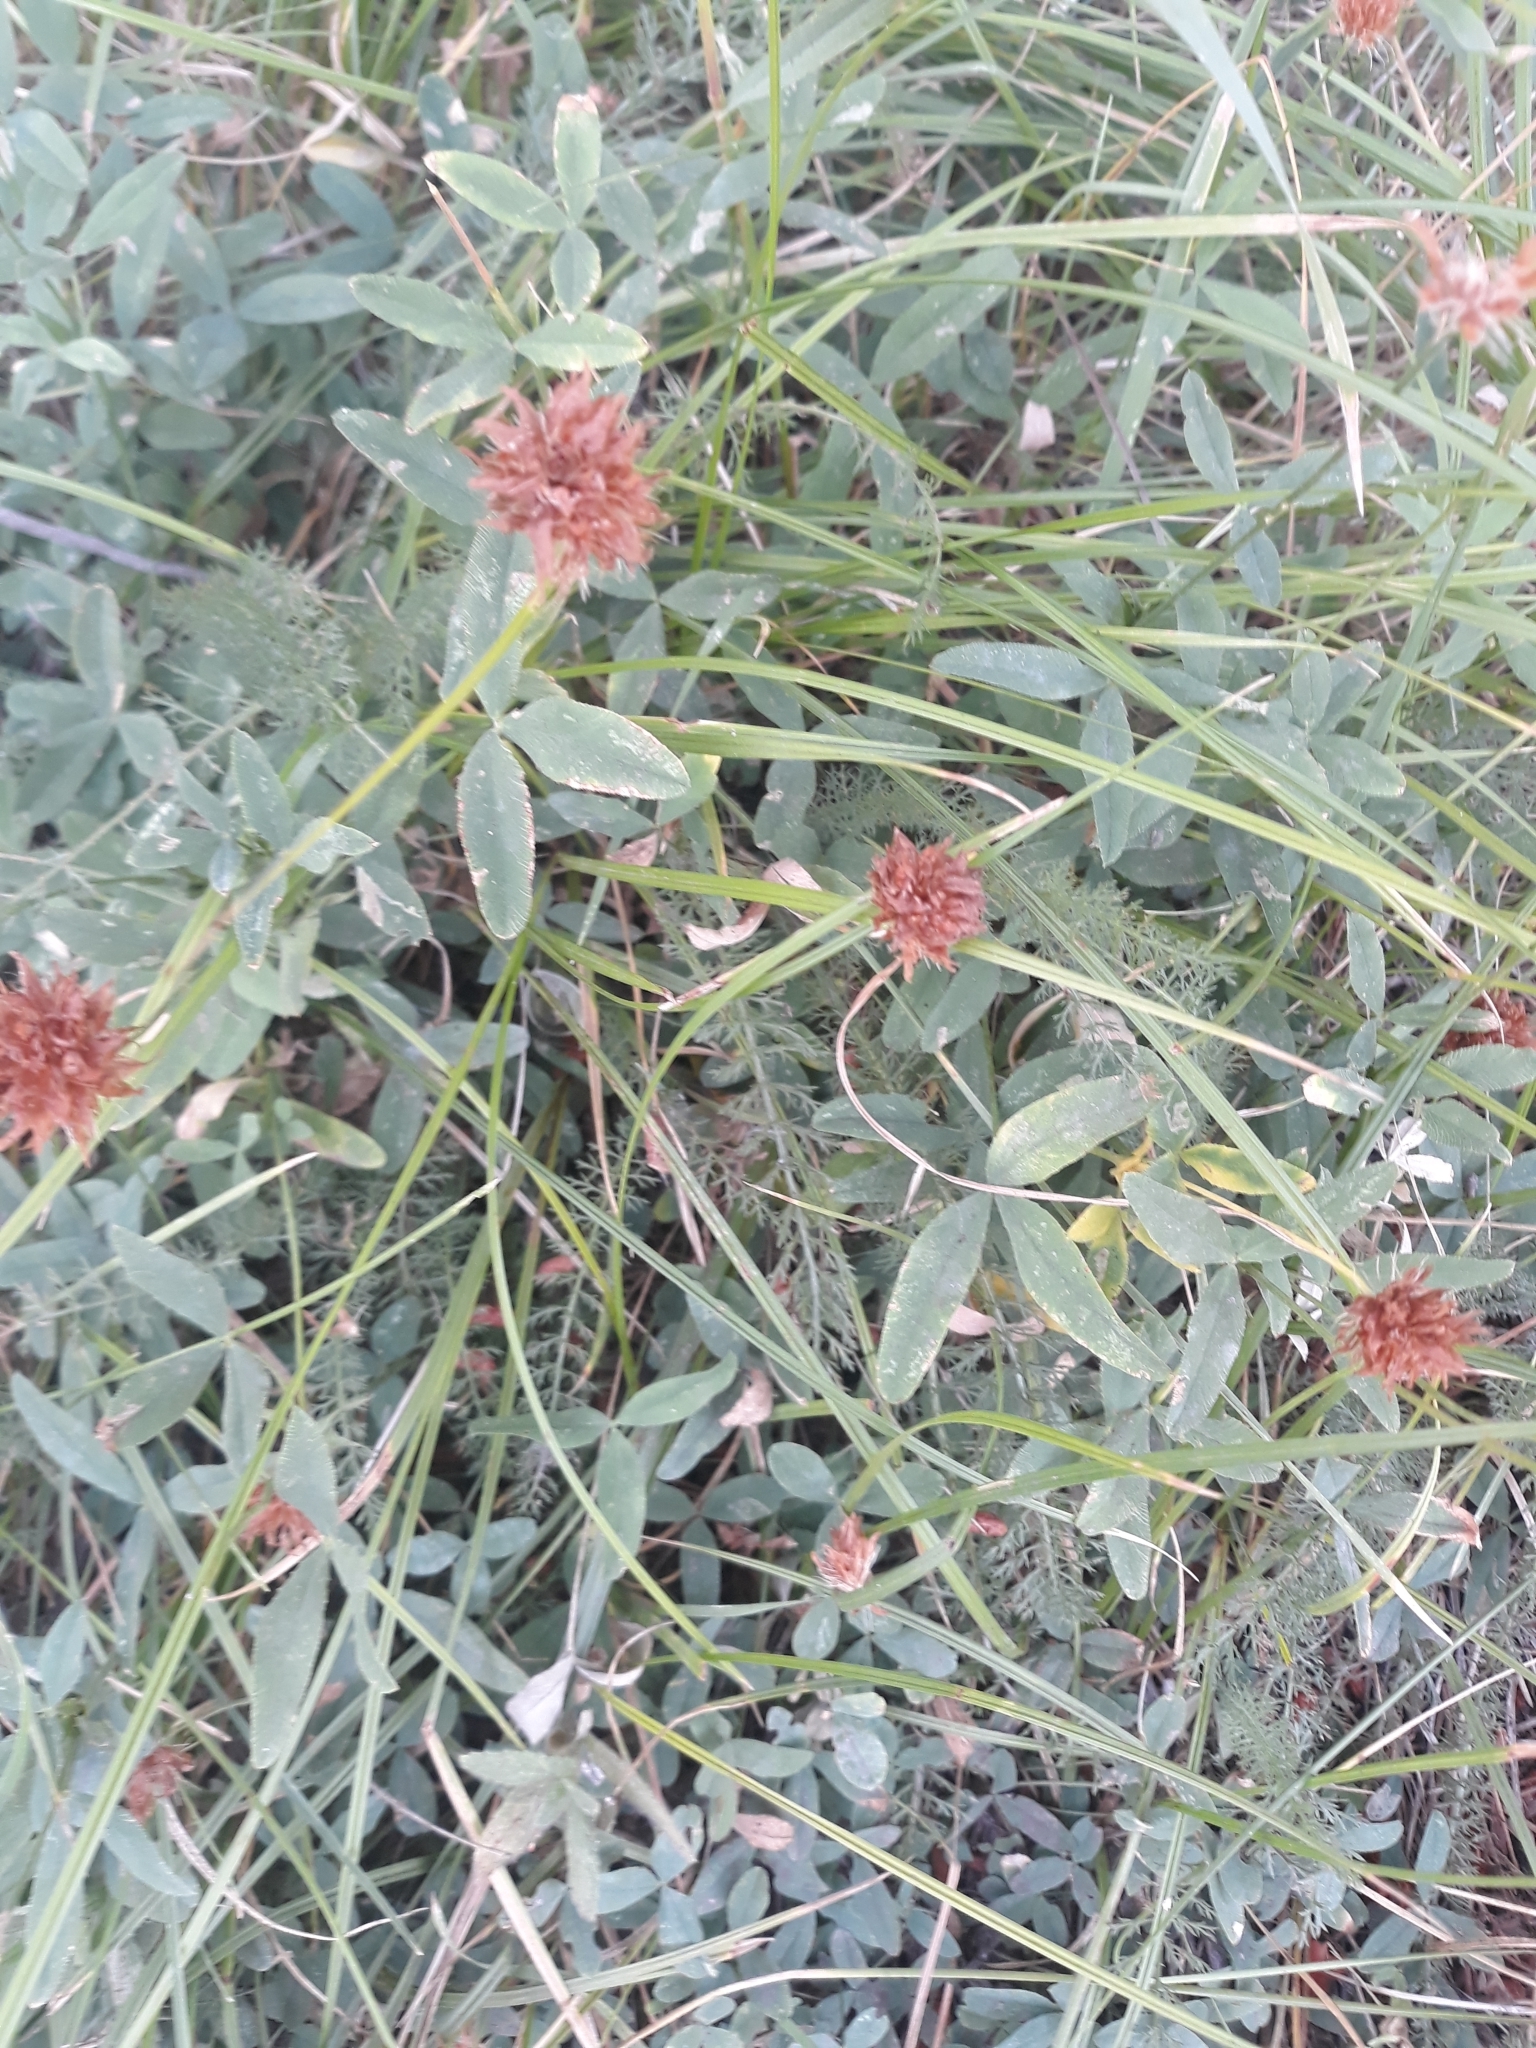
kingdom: Plantae
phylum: Tracheophyta
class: Magnoliopsida
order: Fabales
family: Fabaceae
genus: Trifolium
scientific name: Trifolium longipes
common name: Long-stalk clover
